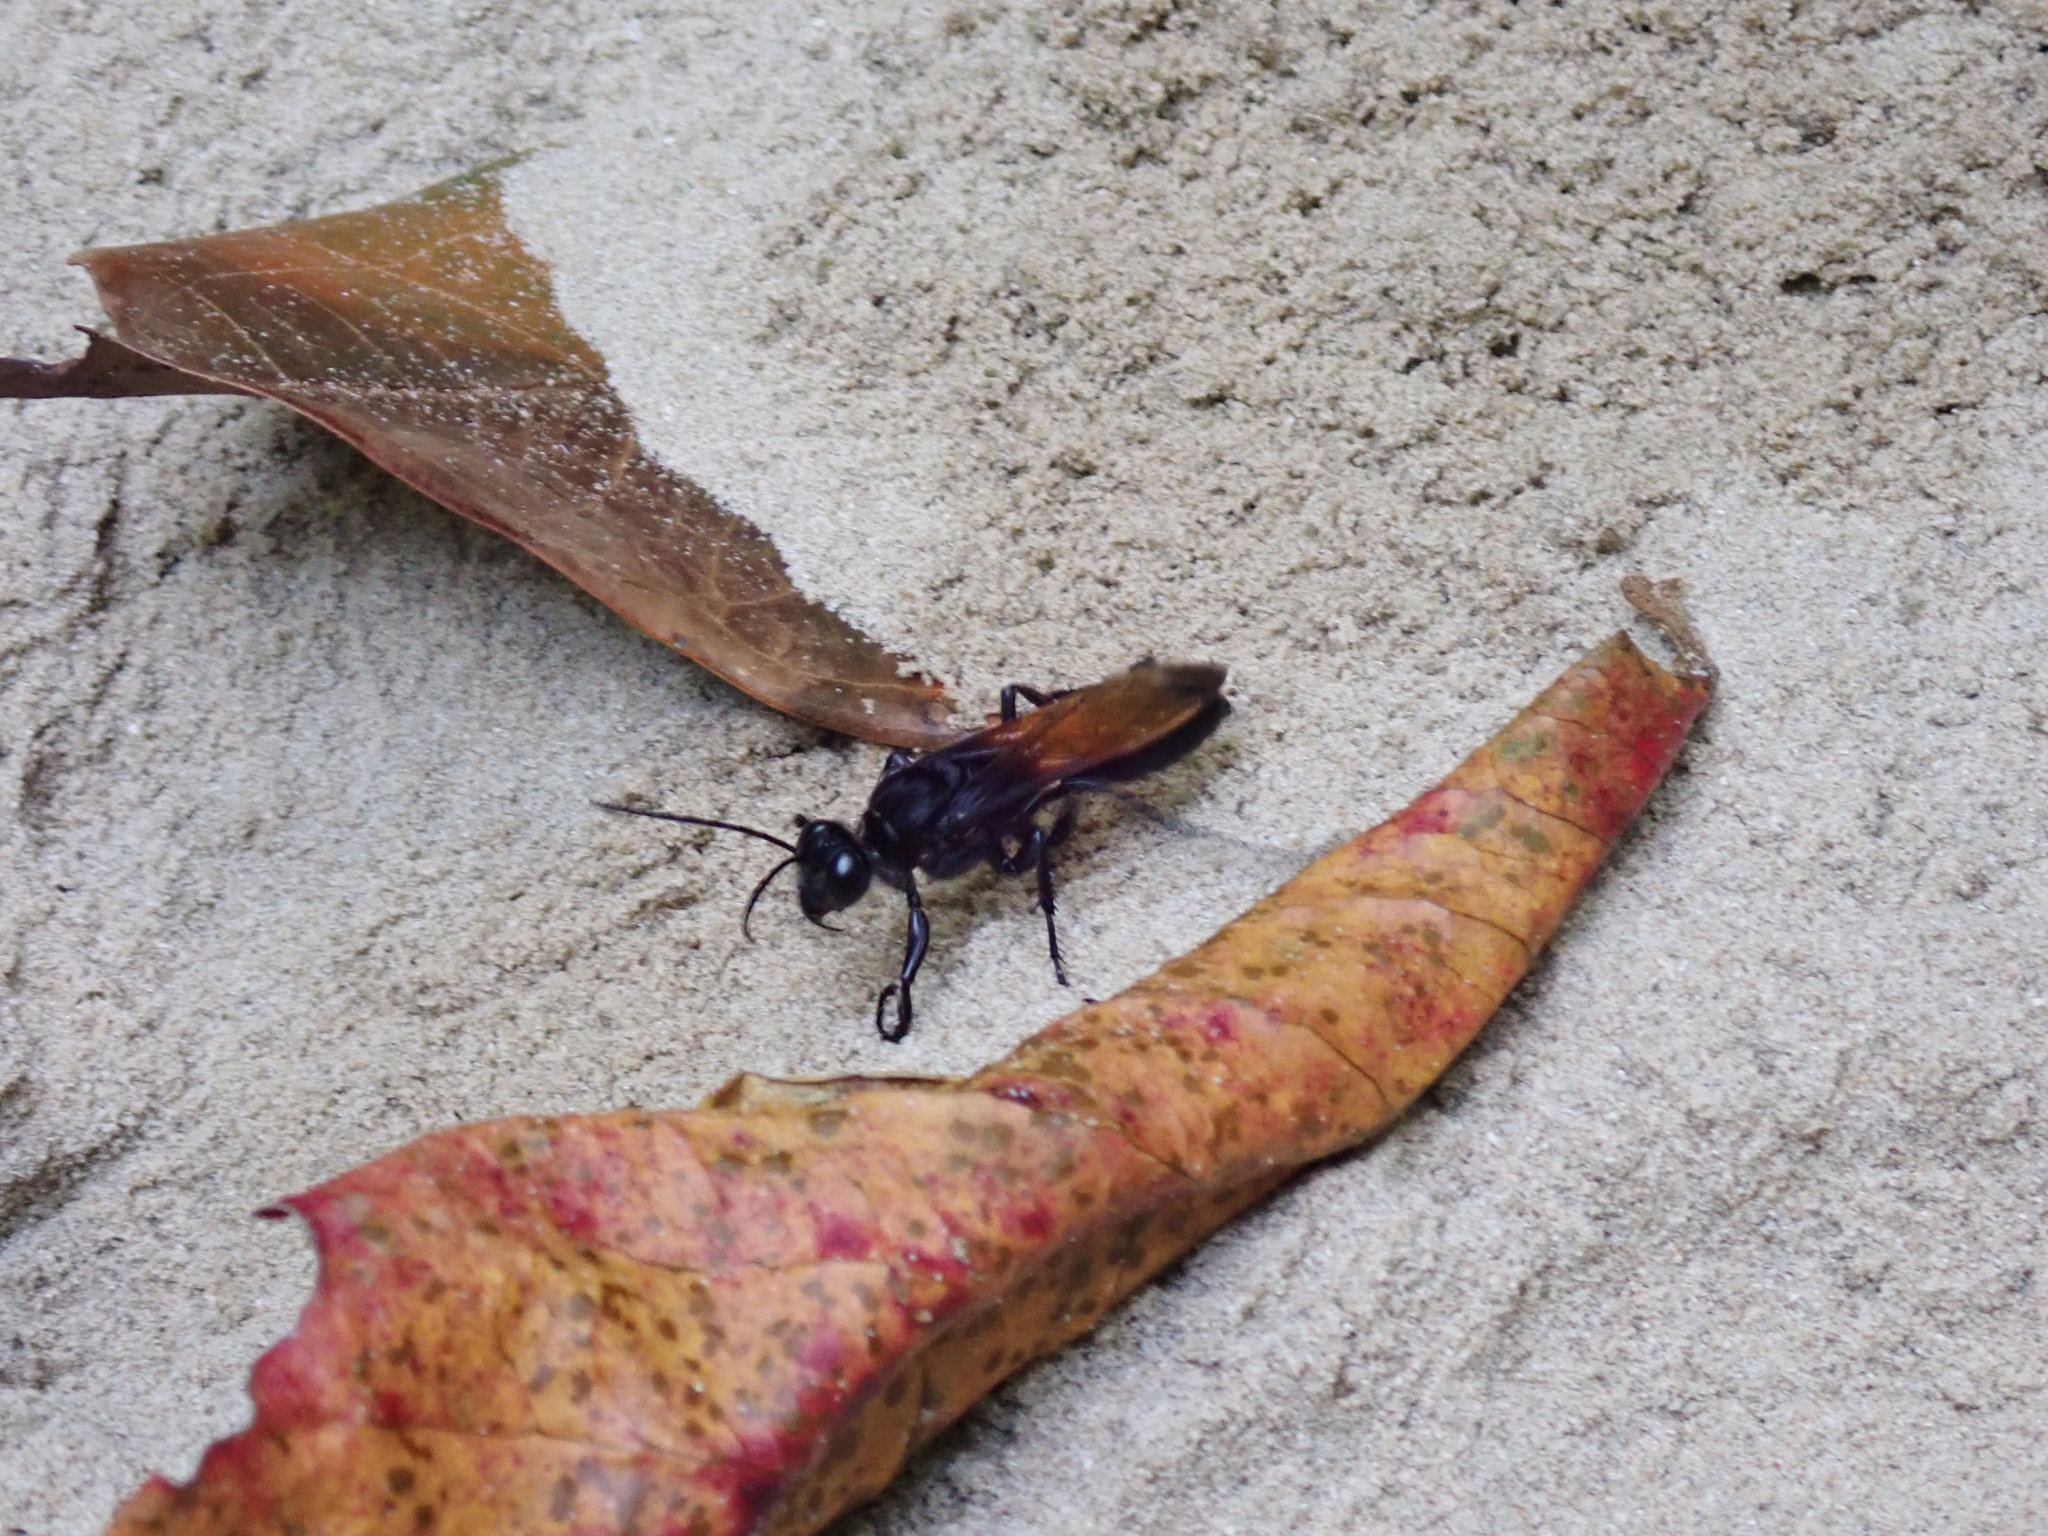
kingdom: Animalia
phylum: Arthropoda
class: Insecta
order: Hymenoptera
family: Sphecidae
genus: Sphex
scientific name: Sphex diabolicus
